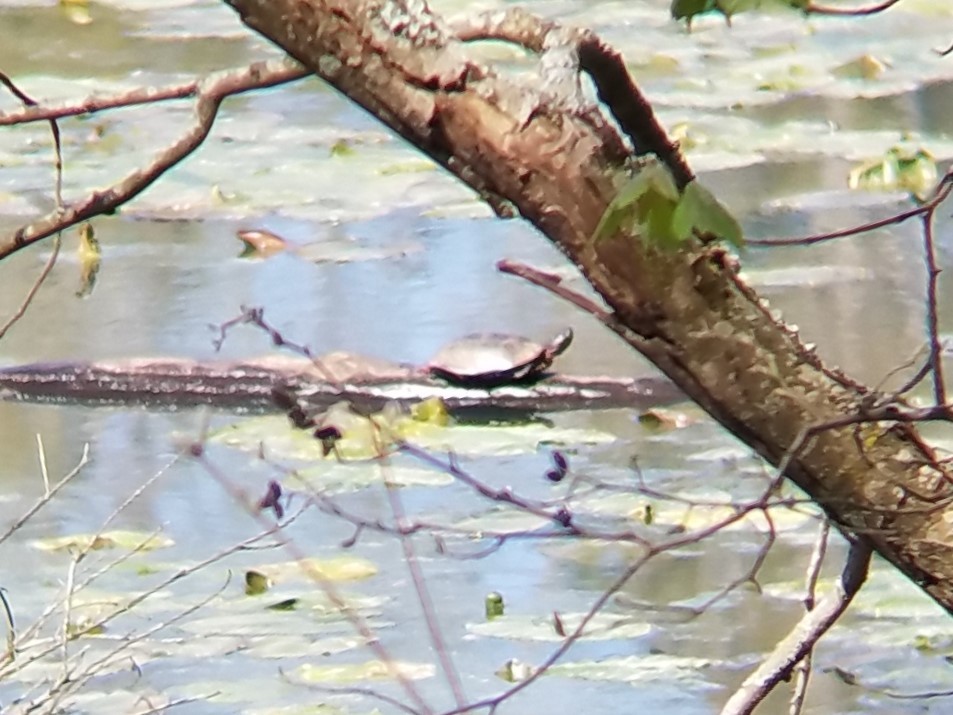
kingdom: Animalia
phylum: Chordata
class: Testudines
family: Emydidae
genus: Chrysemys
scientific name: Chrysemys picta
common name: Painted turtle
